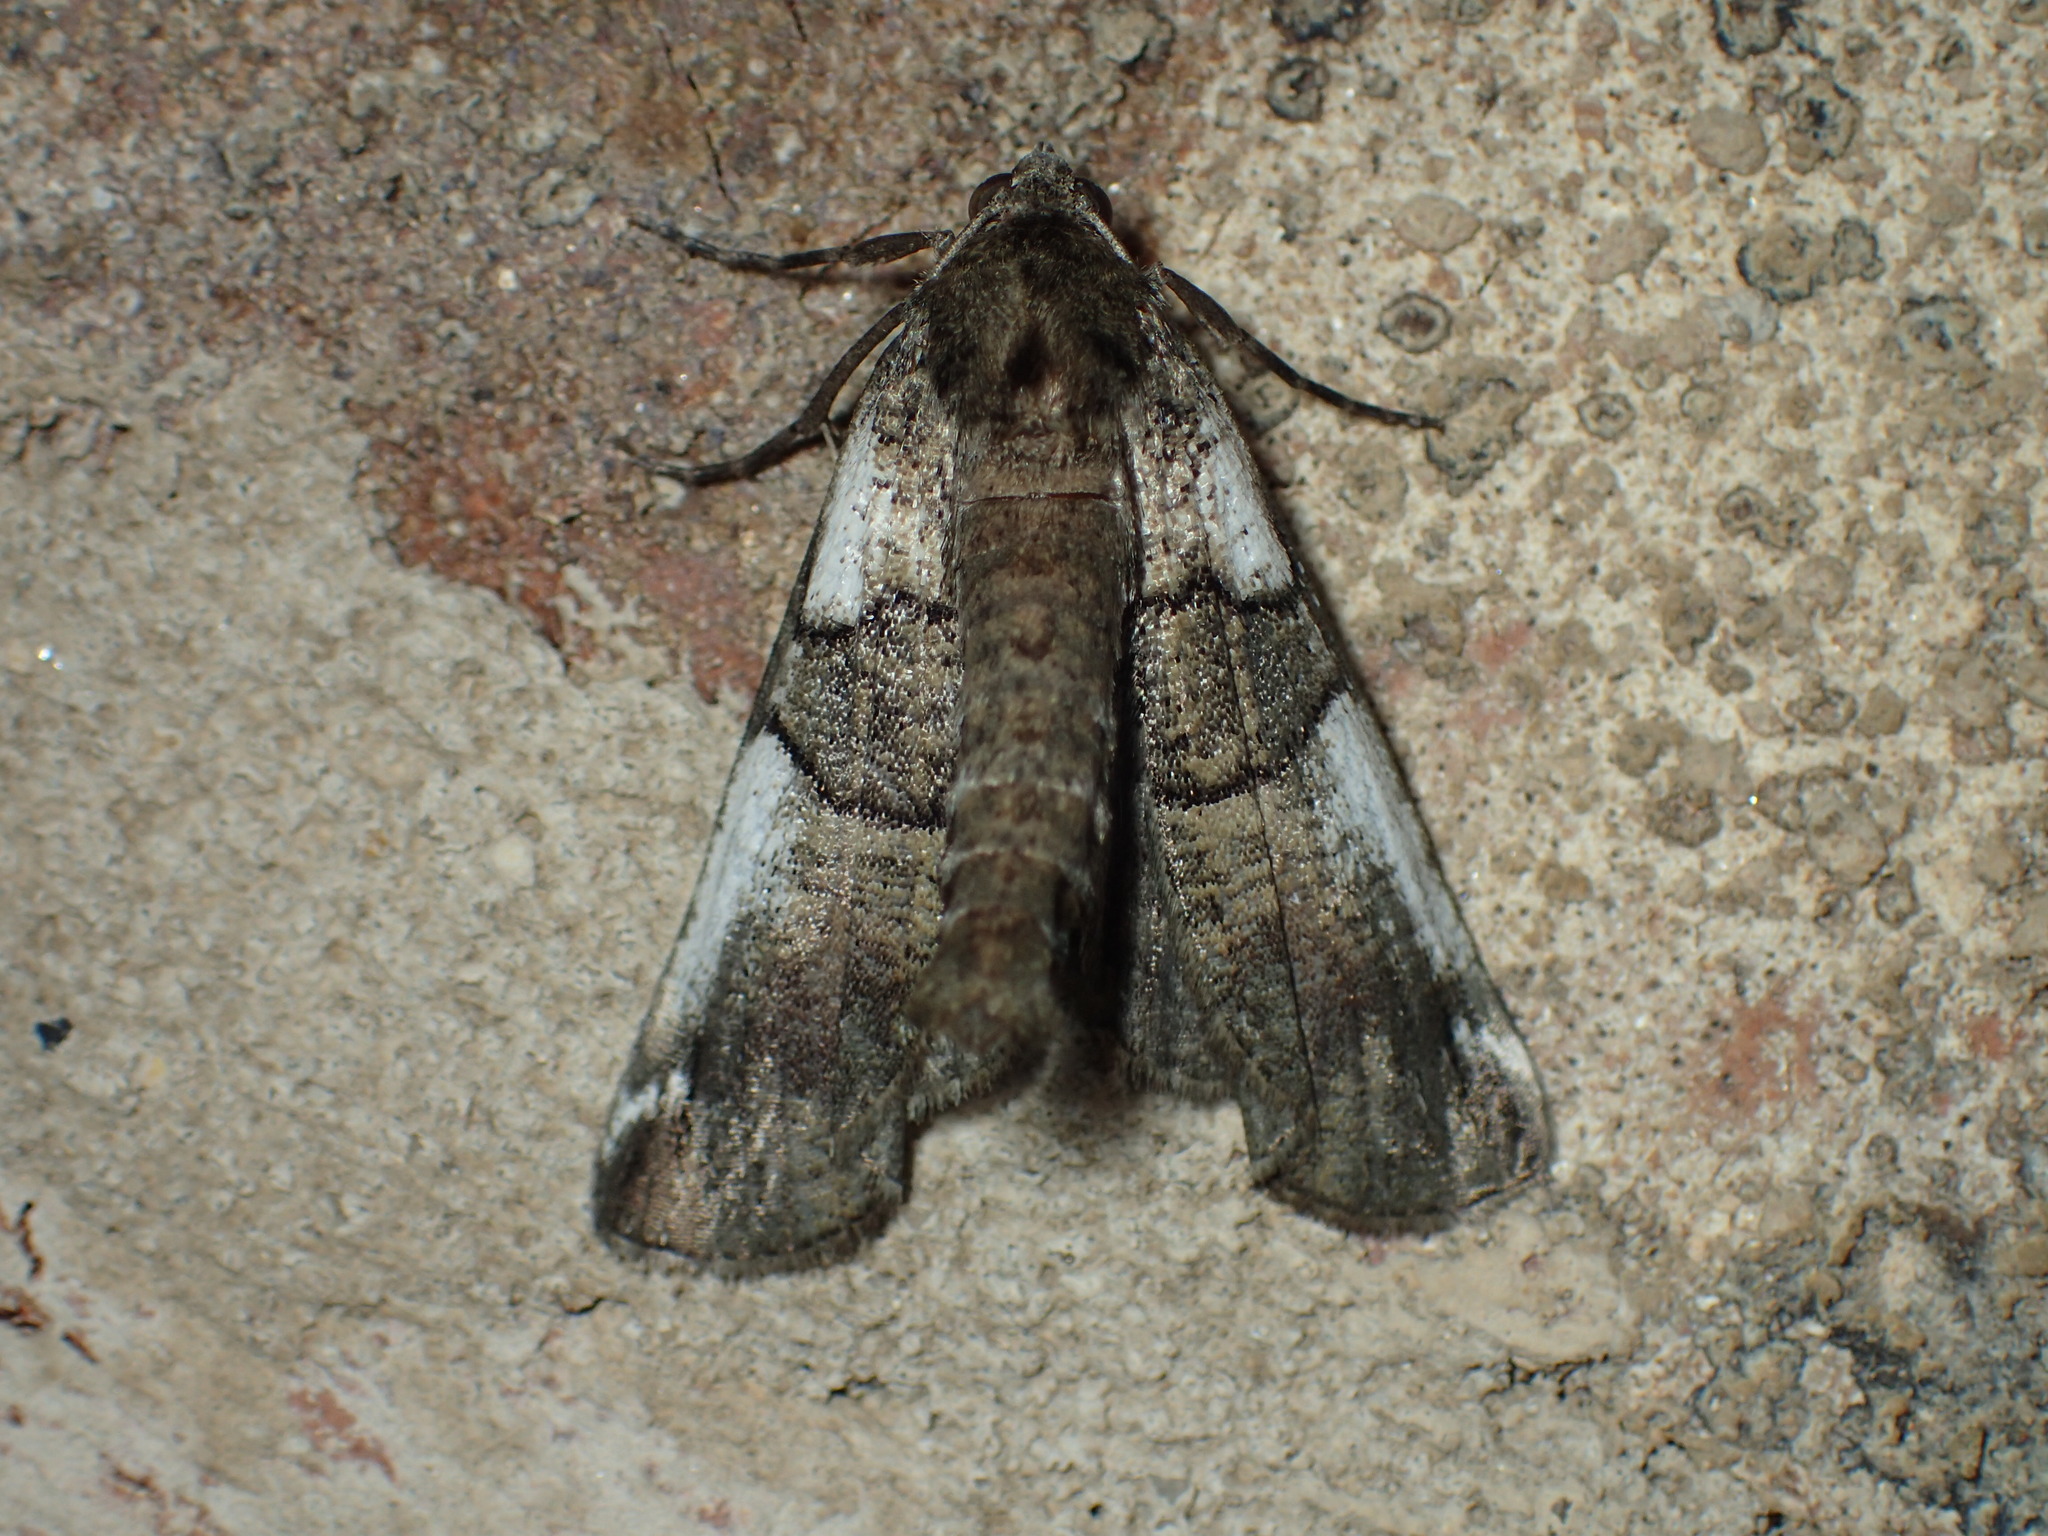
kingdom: Animalia
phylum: Arthropoda
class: Insecta
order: Lepidoptera
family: Geometridae
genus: Ceratonyx
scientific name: Ceratonyx satanaria
